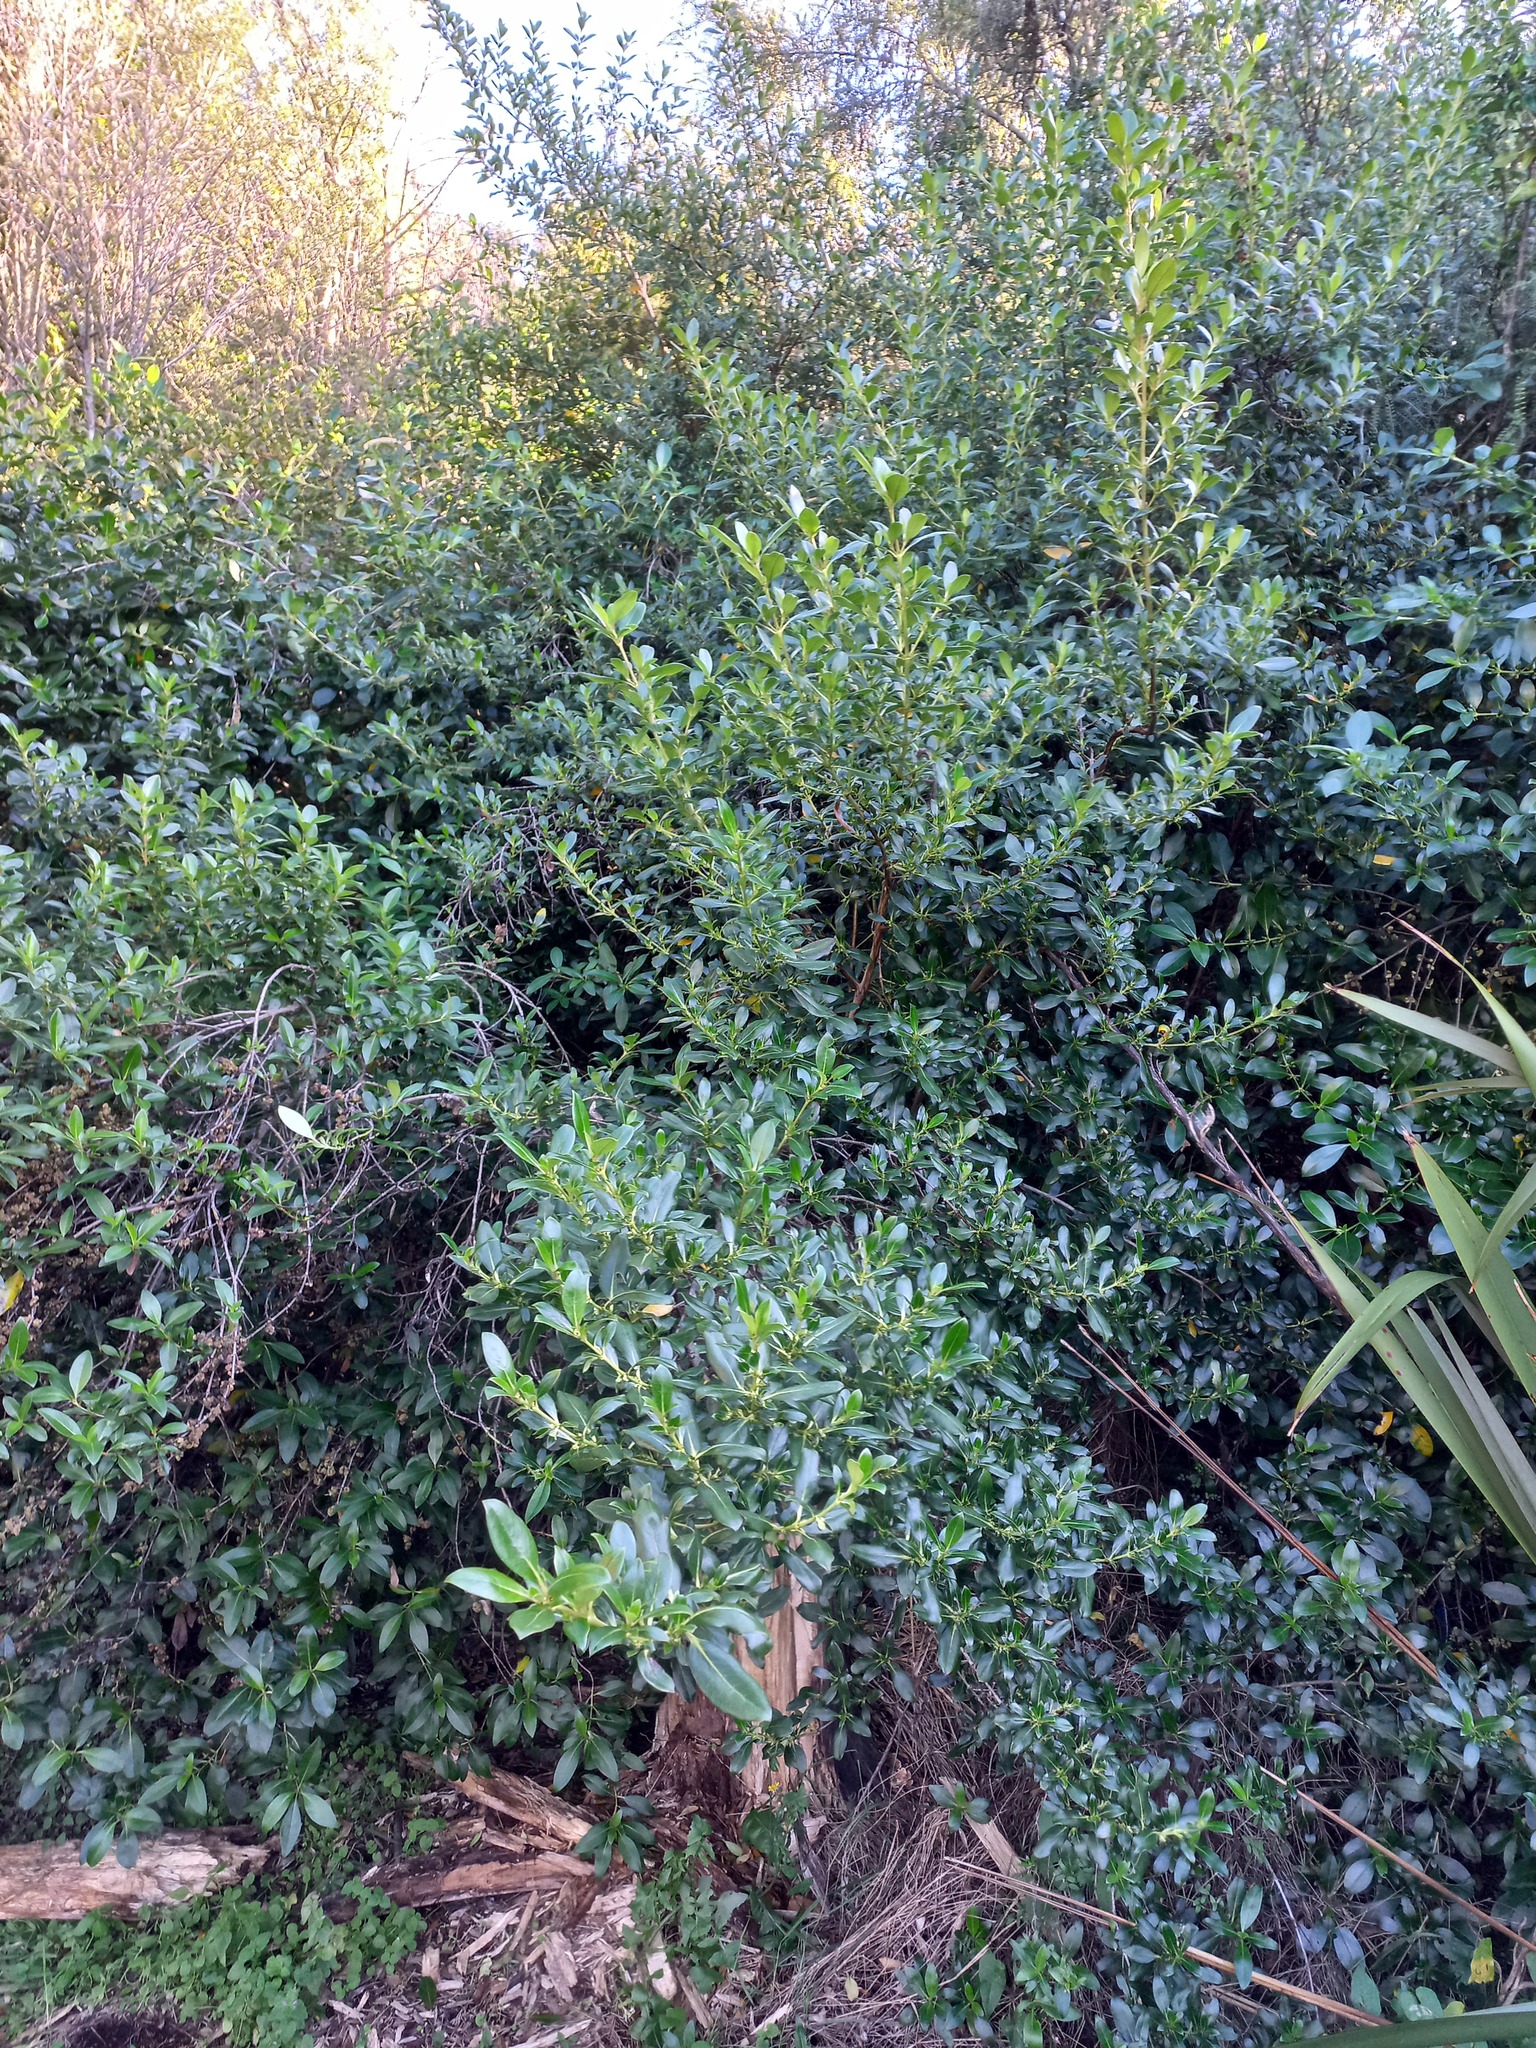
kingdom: Plantae
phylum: Tracheophyta
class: Magnoliopsida
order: Gentianales
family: Rubiaceae
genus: Coprosma
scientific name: Coprosma robusta
